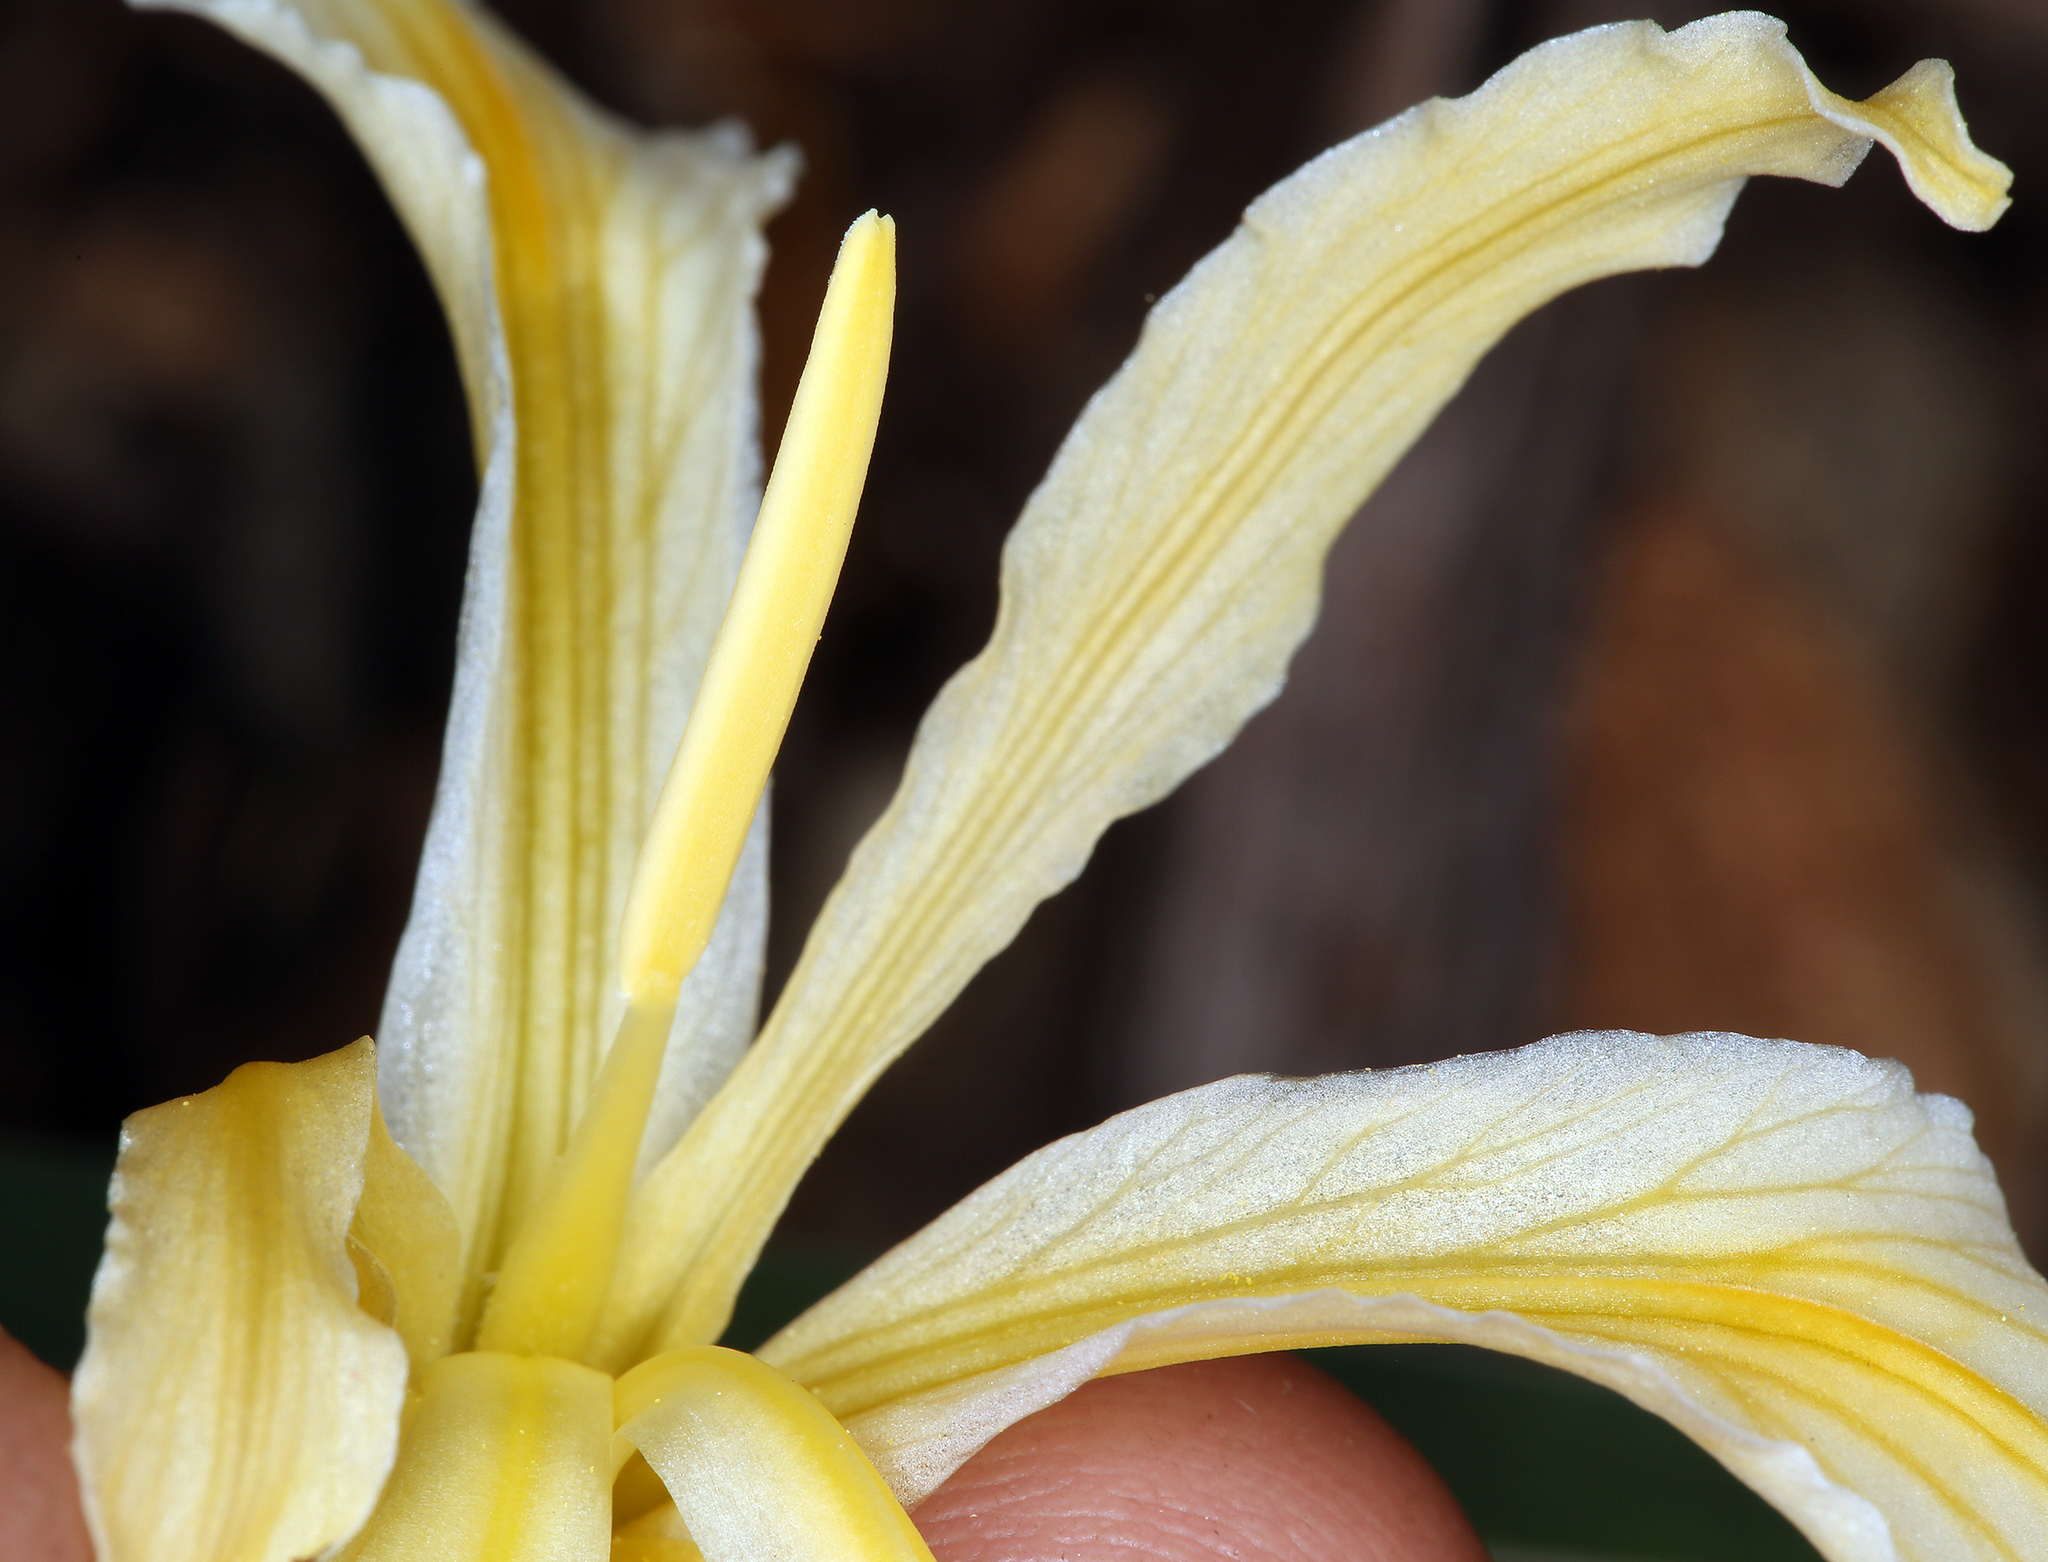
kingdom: Plantae
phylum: Tracheophyta
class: Liliopsida
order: Asparagales
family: Iridaceae
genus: Iris
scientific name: Iris hartwegii
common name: Sierra iris
